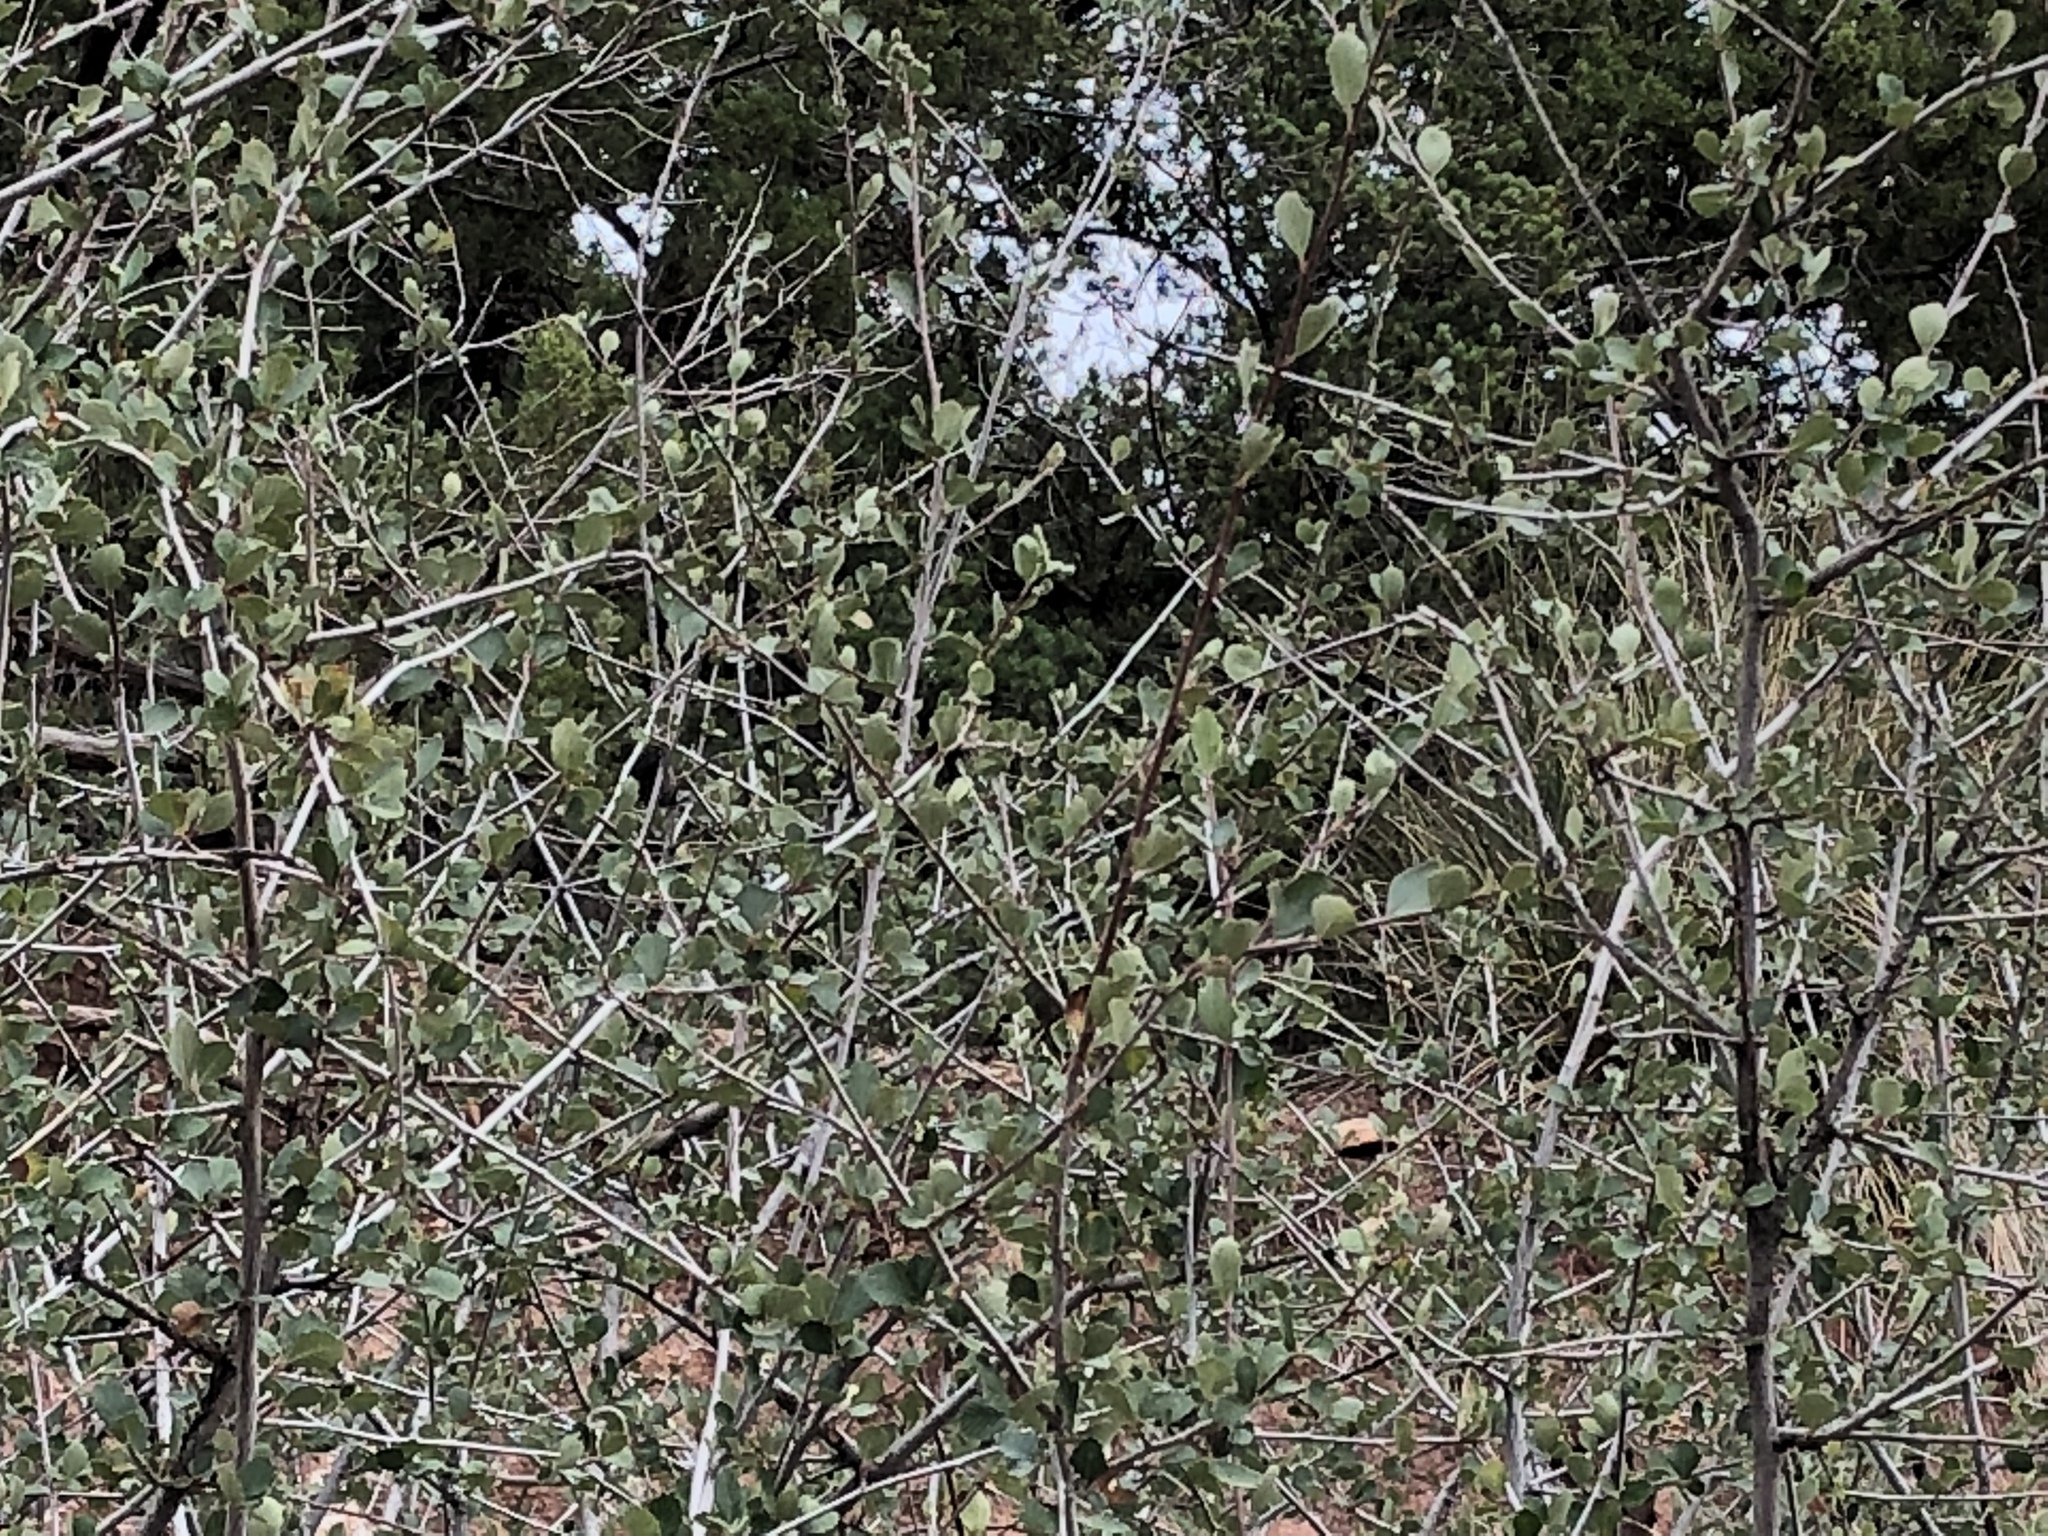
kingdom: Plantae
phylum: Tracheophyta
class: Magnoliopsida
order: Rosales
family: Rosaceae
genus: Cercocarpus
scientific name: Cercocarpus breviflorus
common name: Wright's mountain-mahogany
